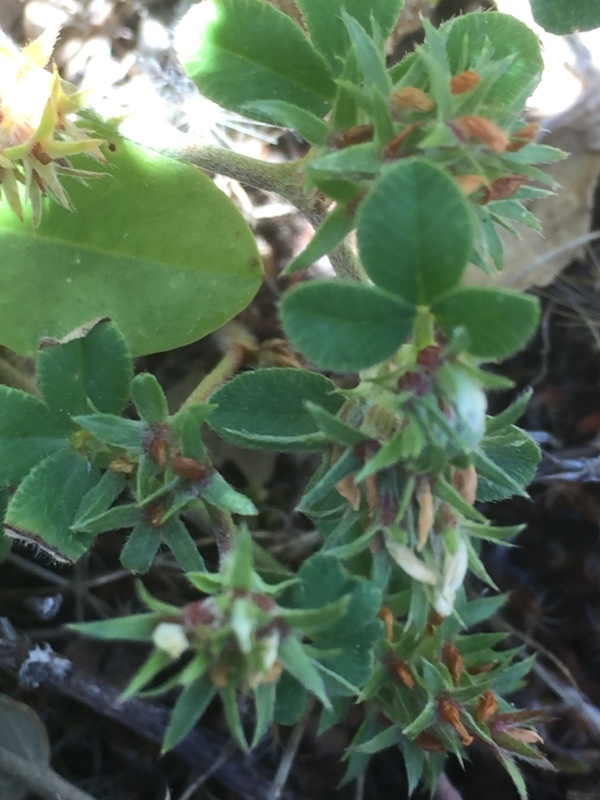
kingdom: Plantae
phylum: Tracheophyta
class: Magnoliopsida
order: Fabales
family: Fabaceae
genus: Trifolium
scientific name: Trifolium scabrum
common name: Rough clover
